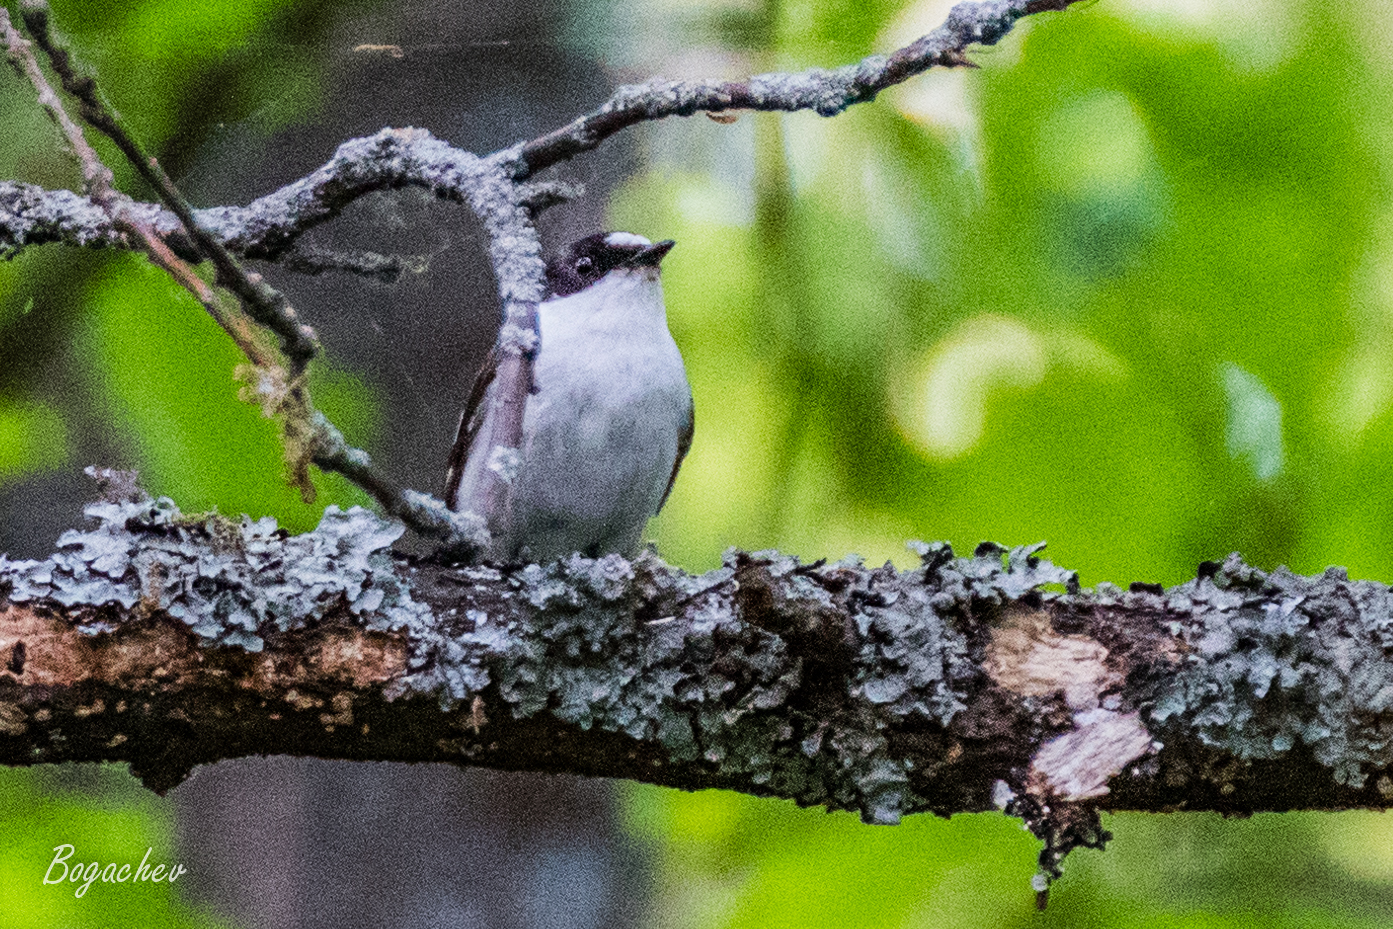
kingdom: Animalia
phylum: Chordata
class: Aves
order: Passeriformes
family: Muscicapidae
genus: Ficedula
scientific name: Ficedula hypoleuca
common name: European pied flycatcher
